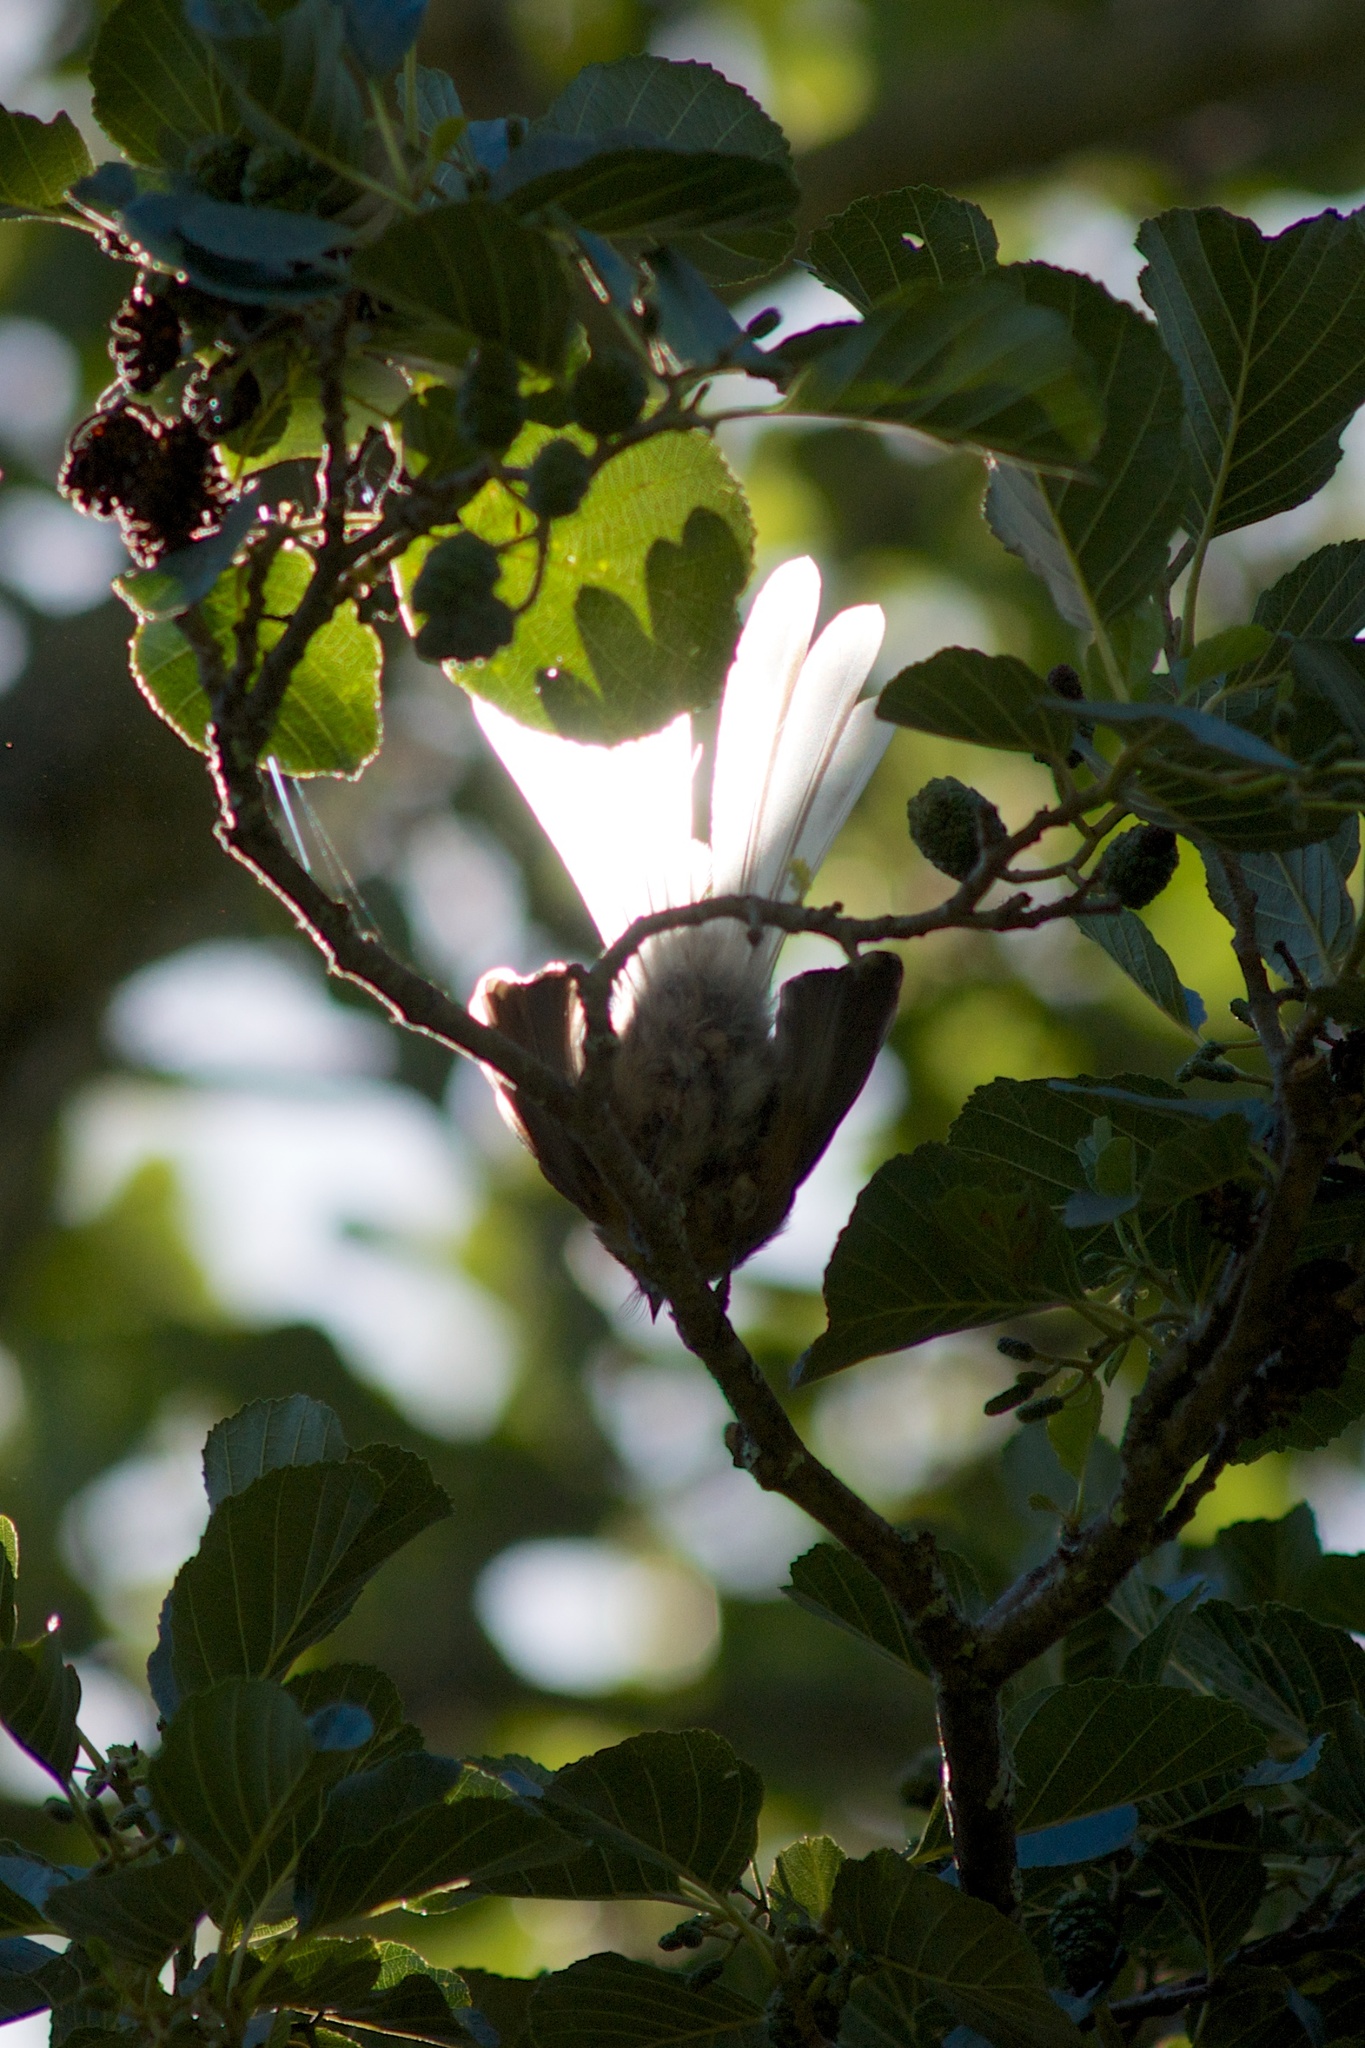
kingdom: Animalia
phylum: Chordata
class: Aves
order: Passeriformes
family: Rhipiduridae
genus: Rhipidura
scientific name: Rhipidura fuliginosa
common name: New zealand fantail
